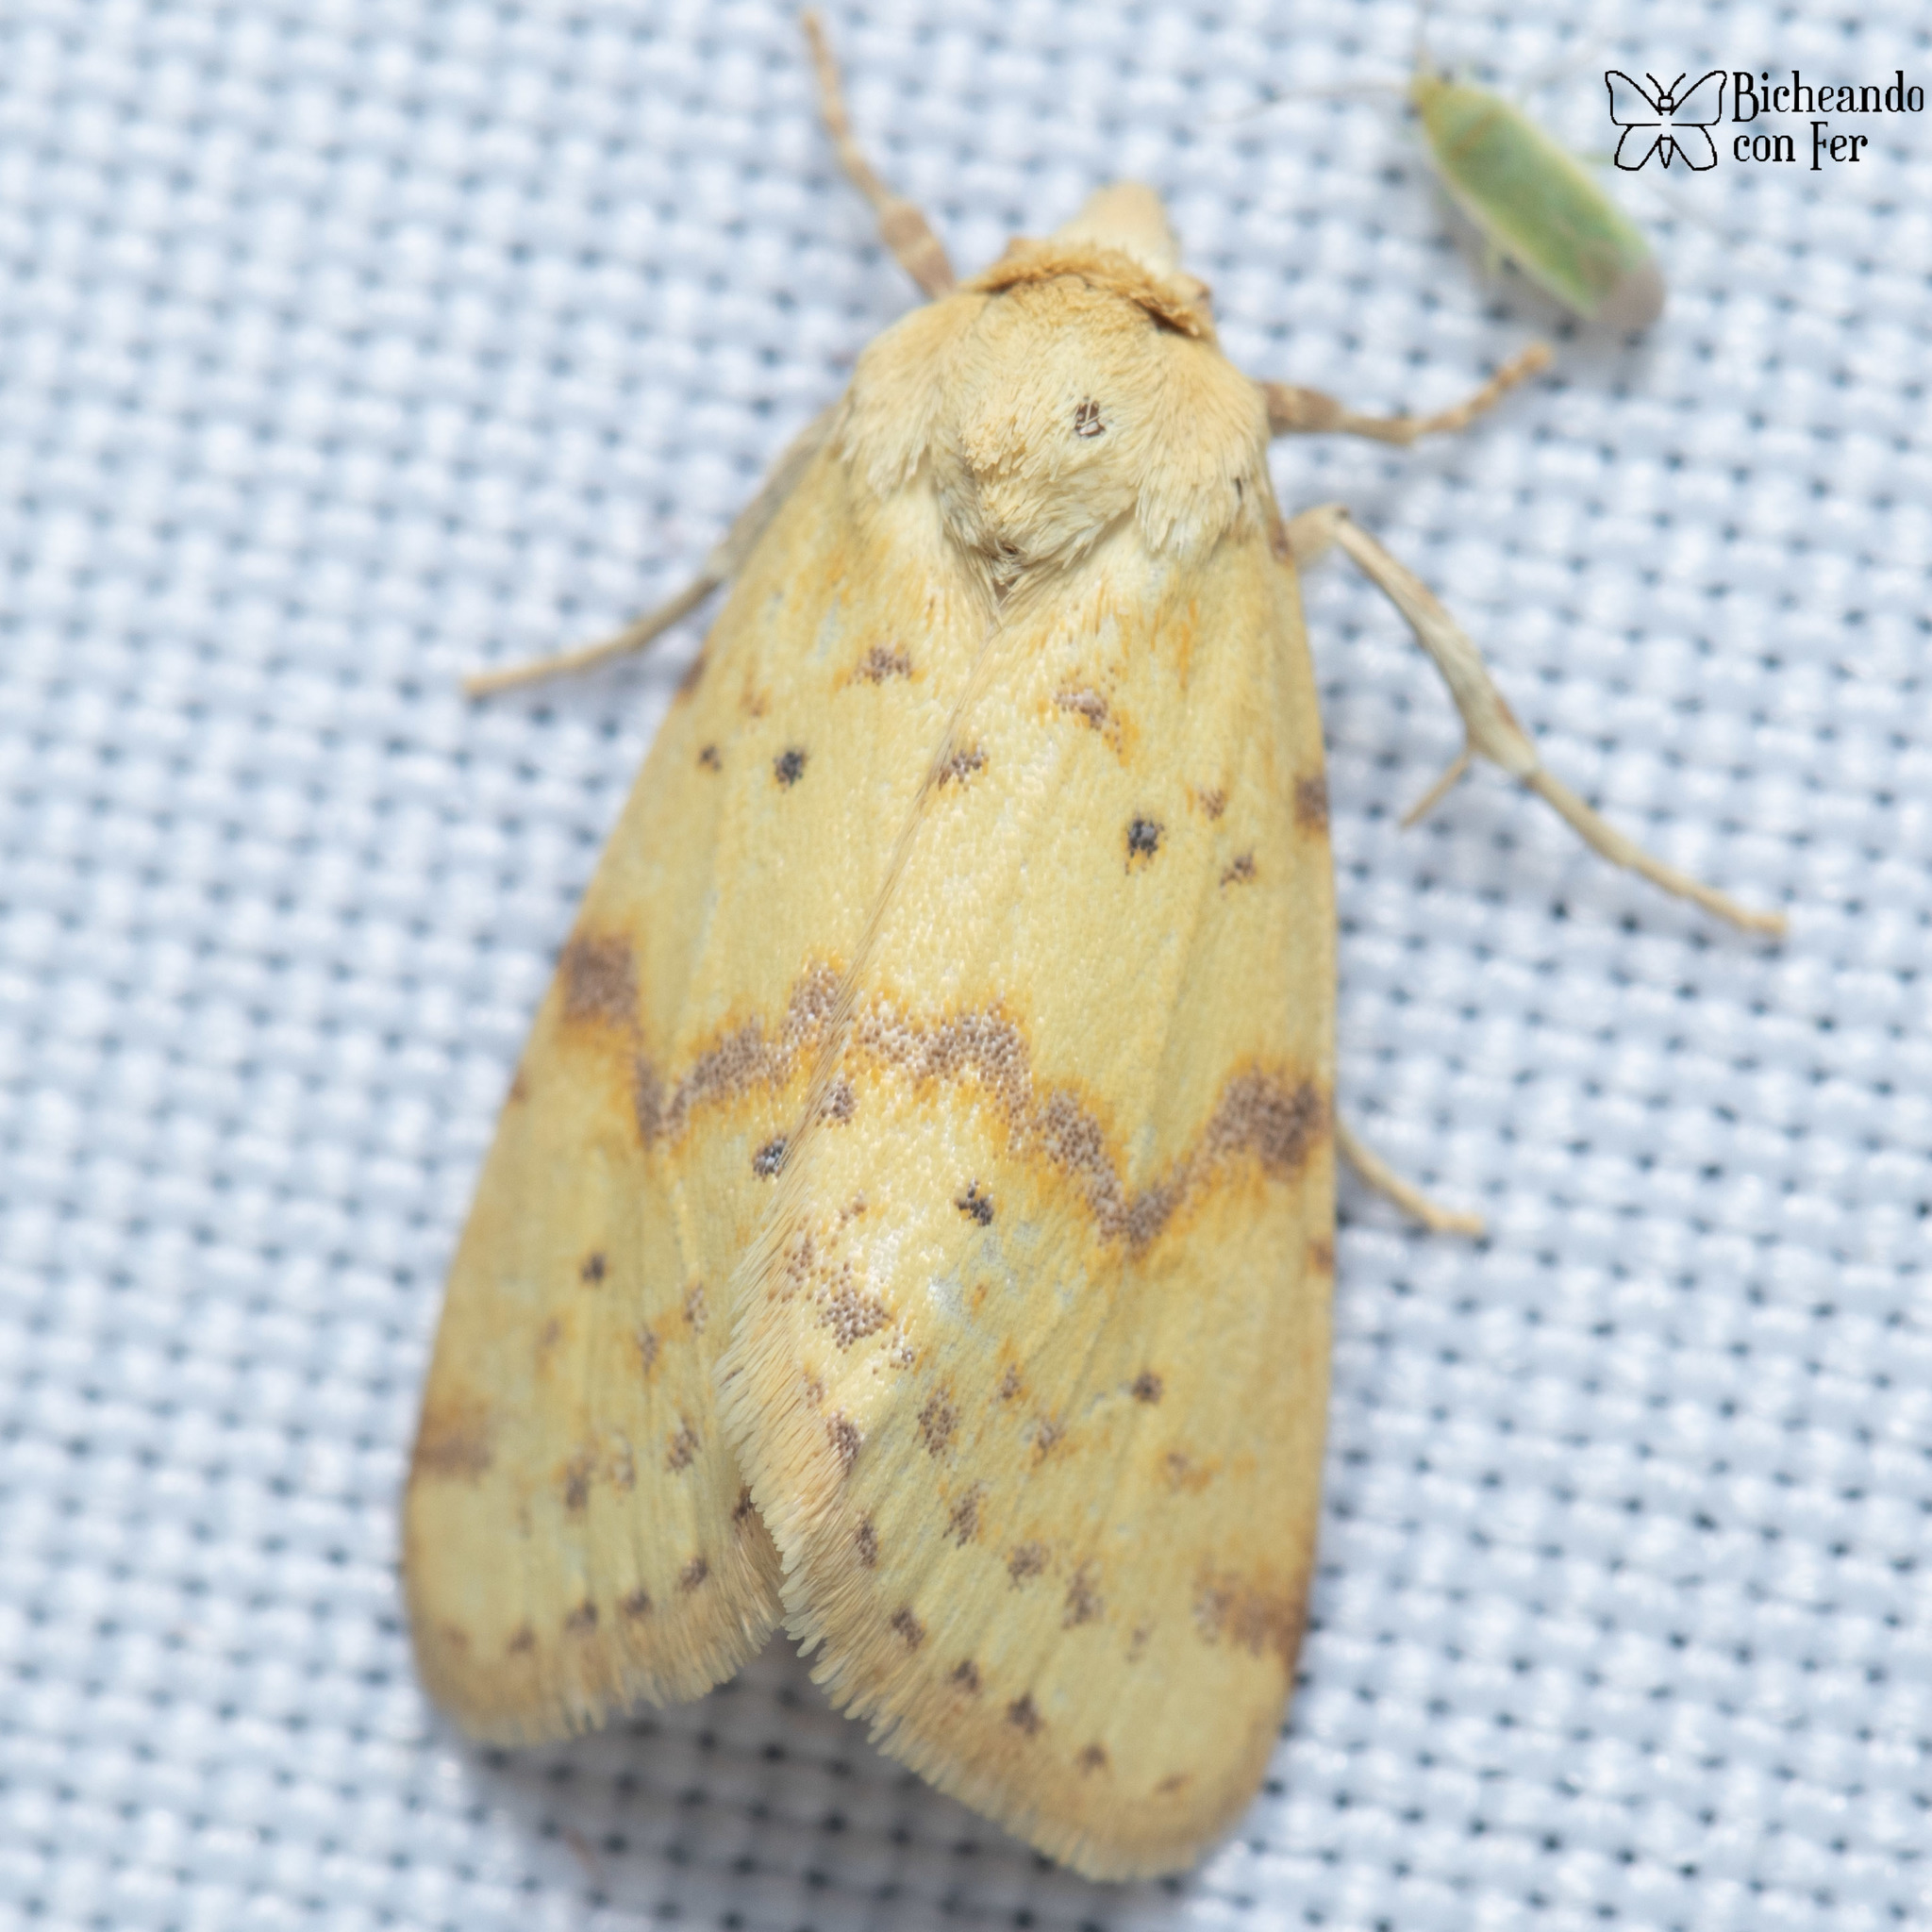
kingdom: Animalia
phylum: Arthropoda
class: Insecta
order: Lepidoptera
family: Noctuidae
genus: Azenia
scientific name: Azenia implora
